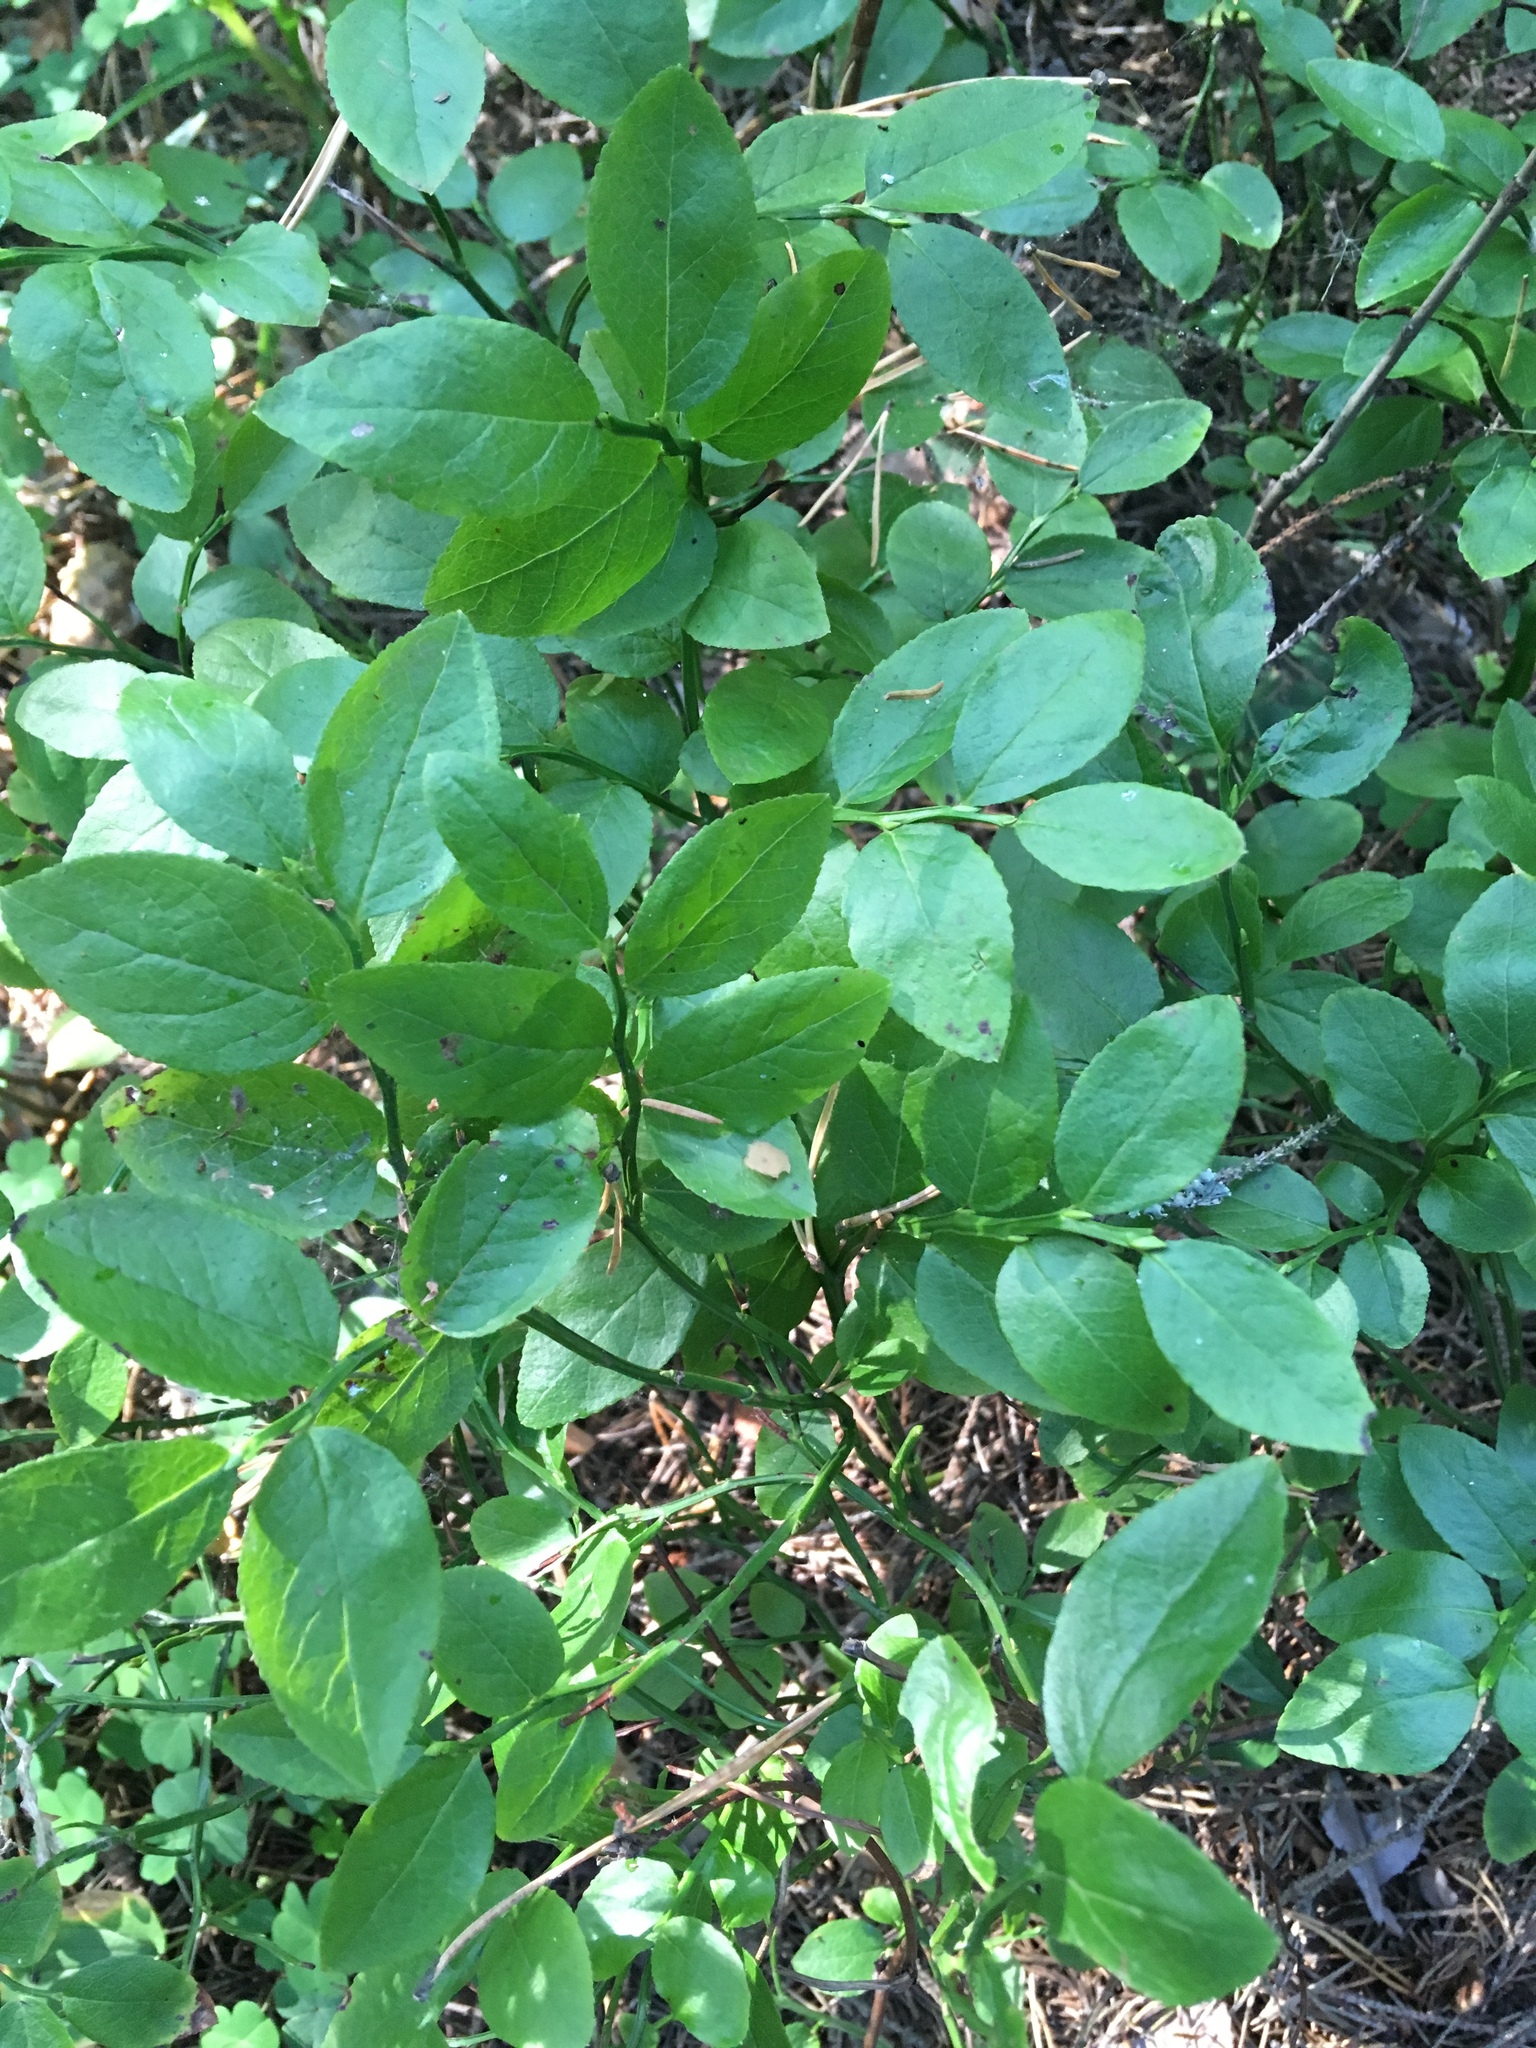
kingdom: Plantae
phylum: Tracheophyta
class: Magnoliopsida
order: Ericales
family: Ericaceae
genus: Vaccinium
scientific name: Vaccinium myrtillus
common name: Bilberry
